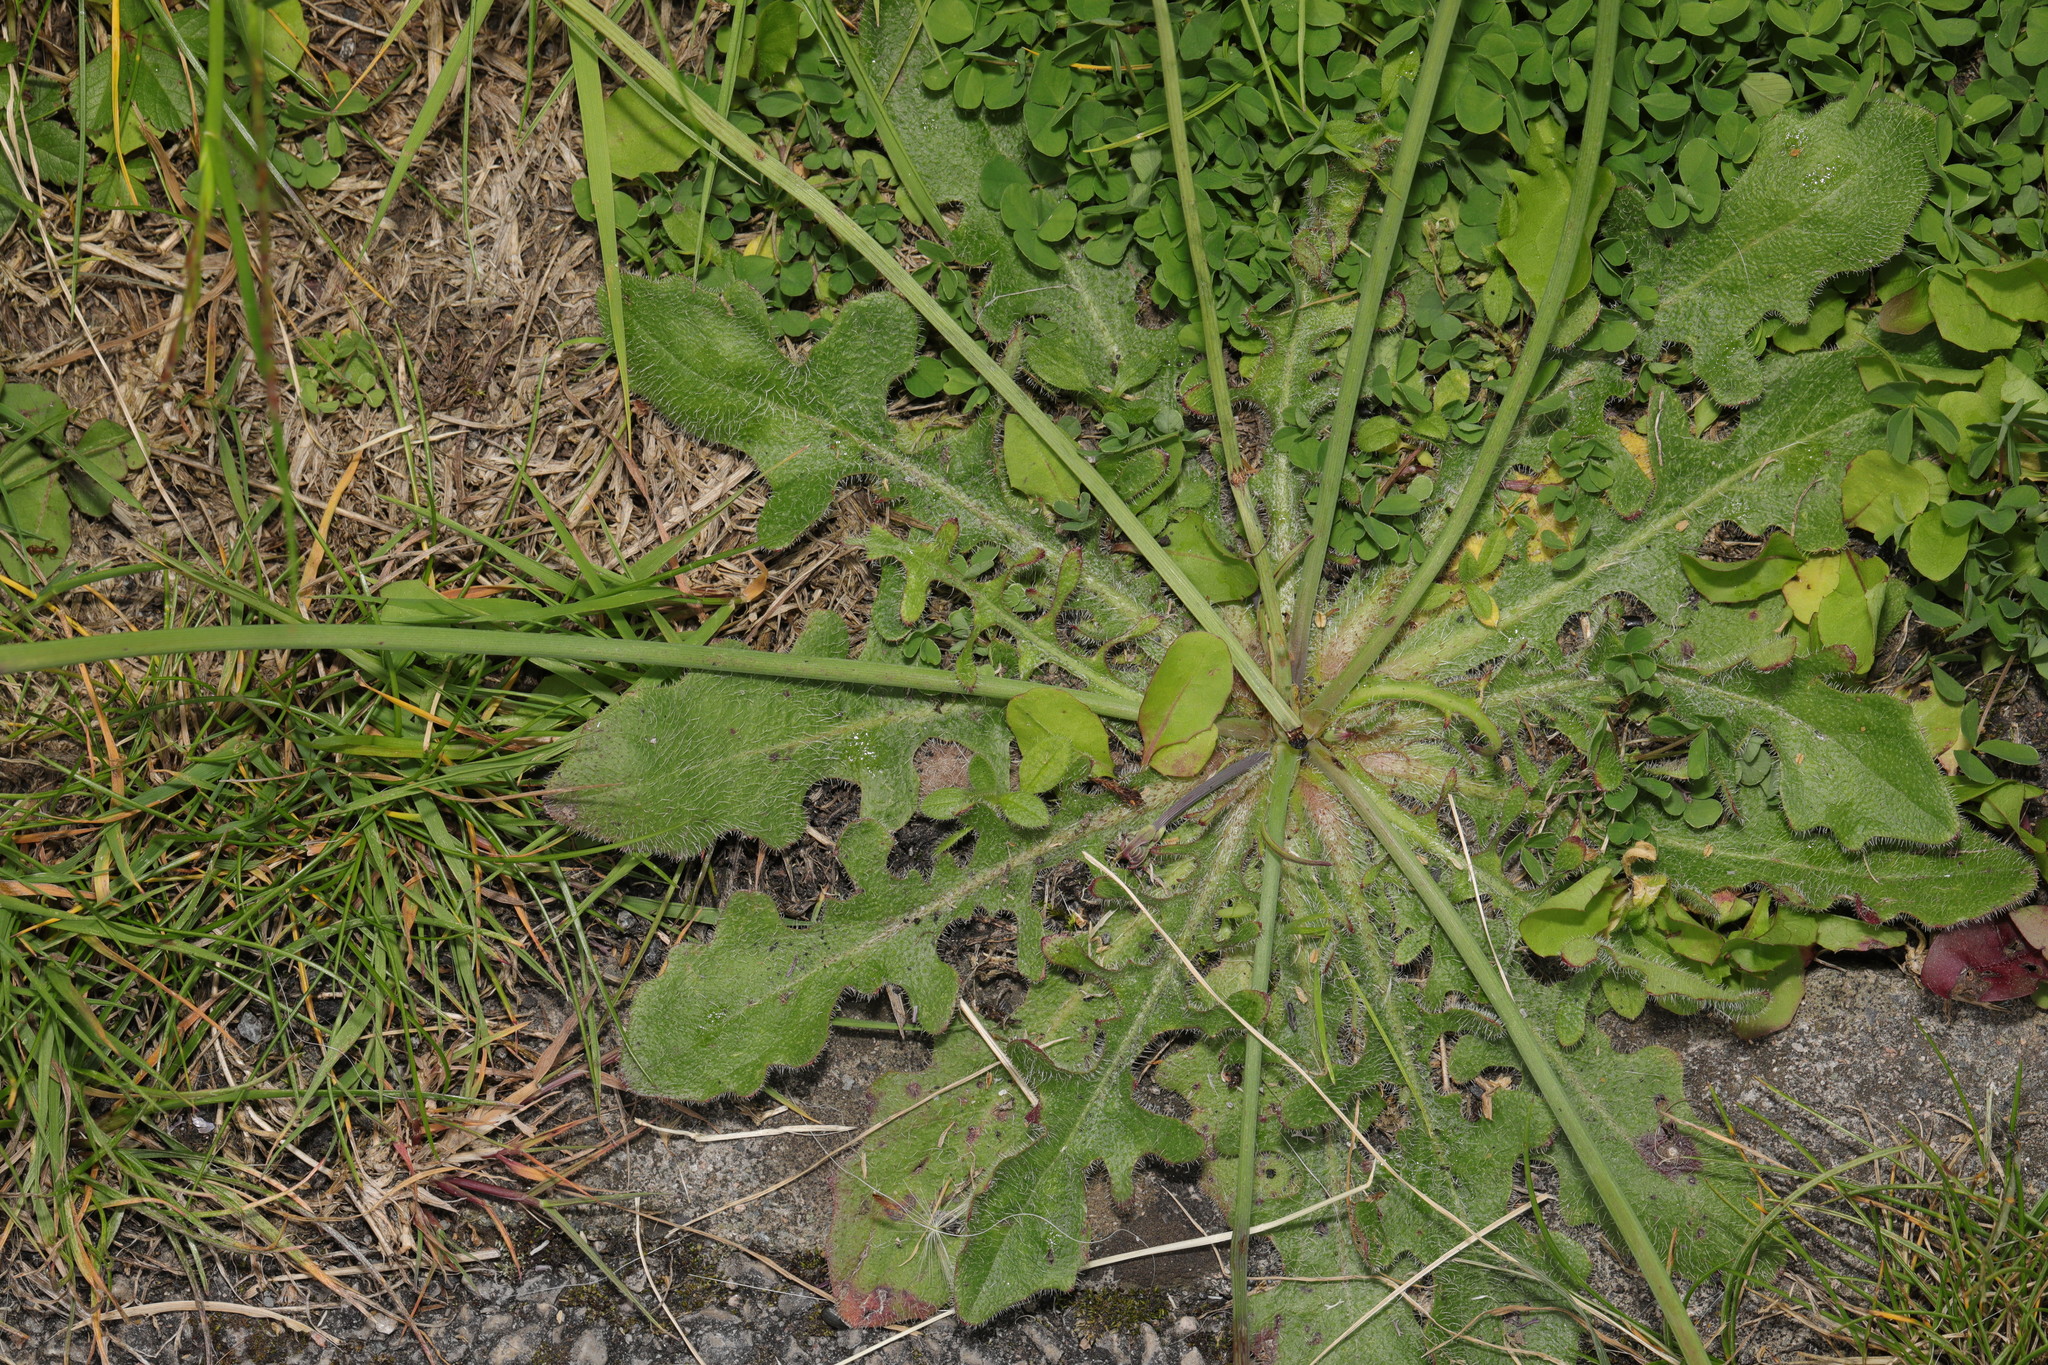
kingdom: Plantae
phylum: Tracheophyta
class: Magnoliopsida
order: Asterales
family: Asteraceae
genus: Hypochaeris
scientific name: Hypochaeris radicata
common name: Flatweed
